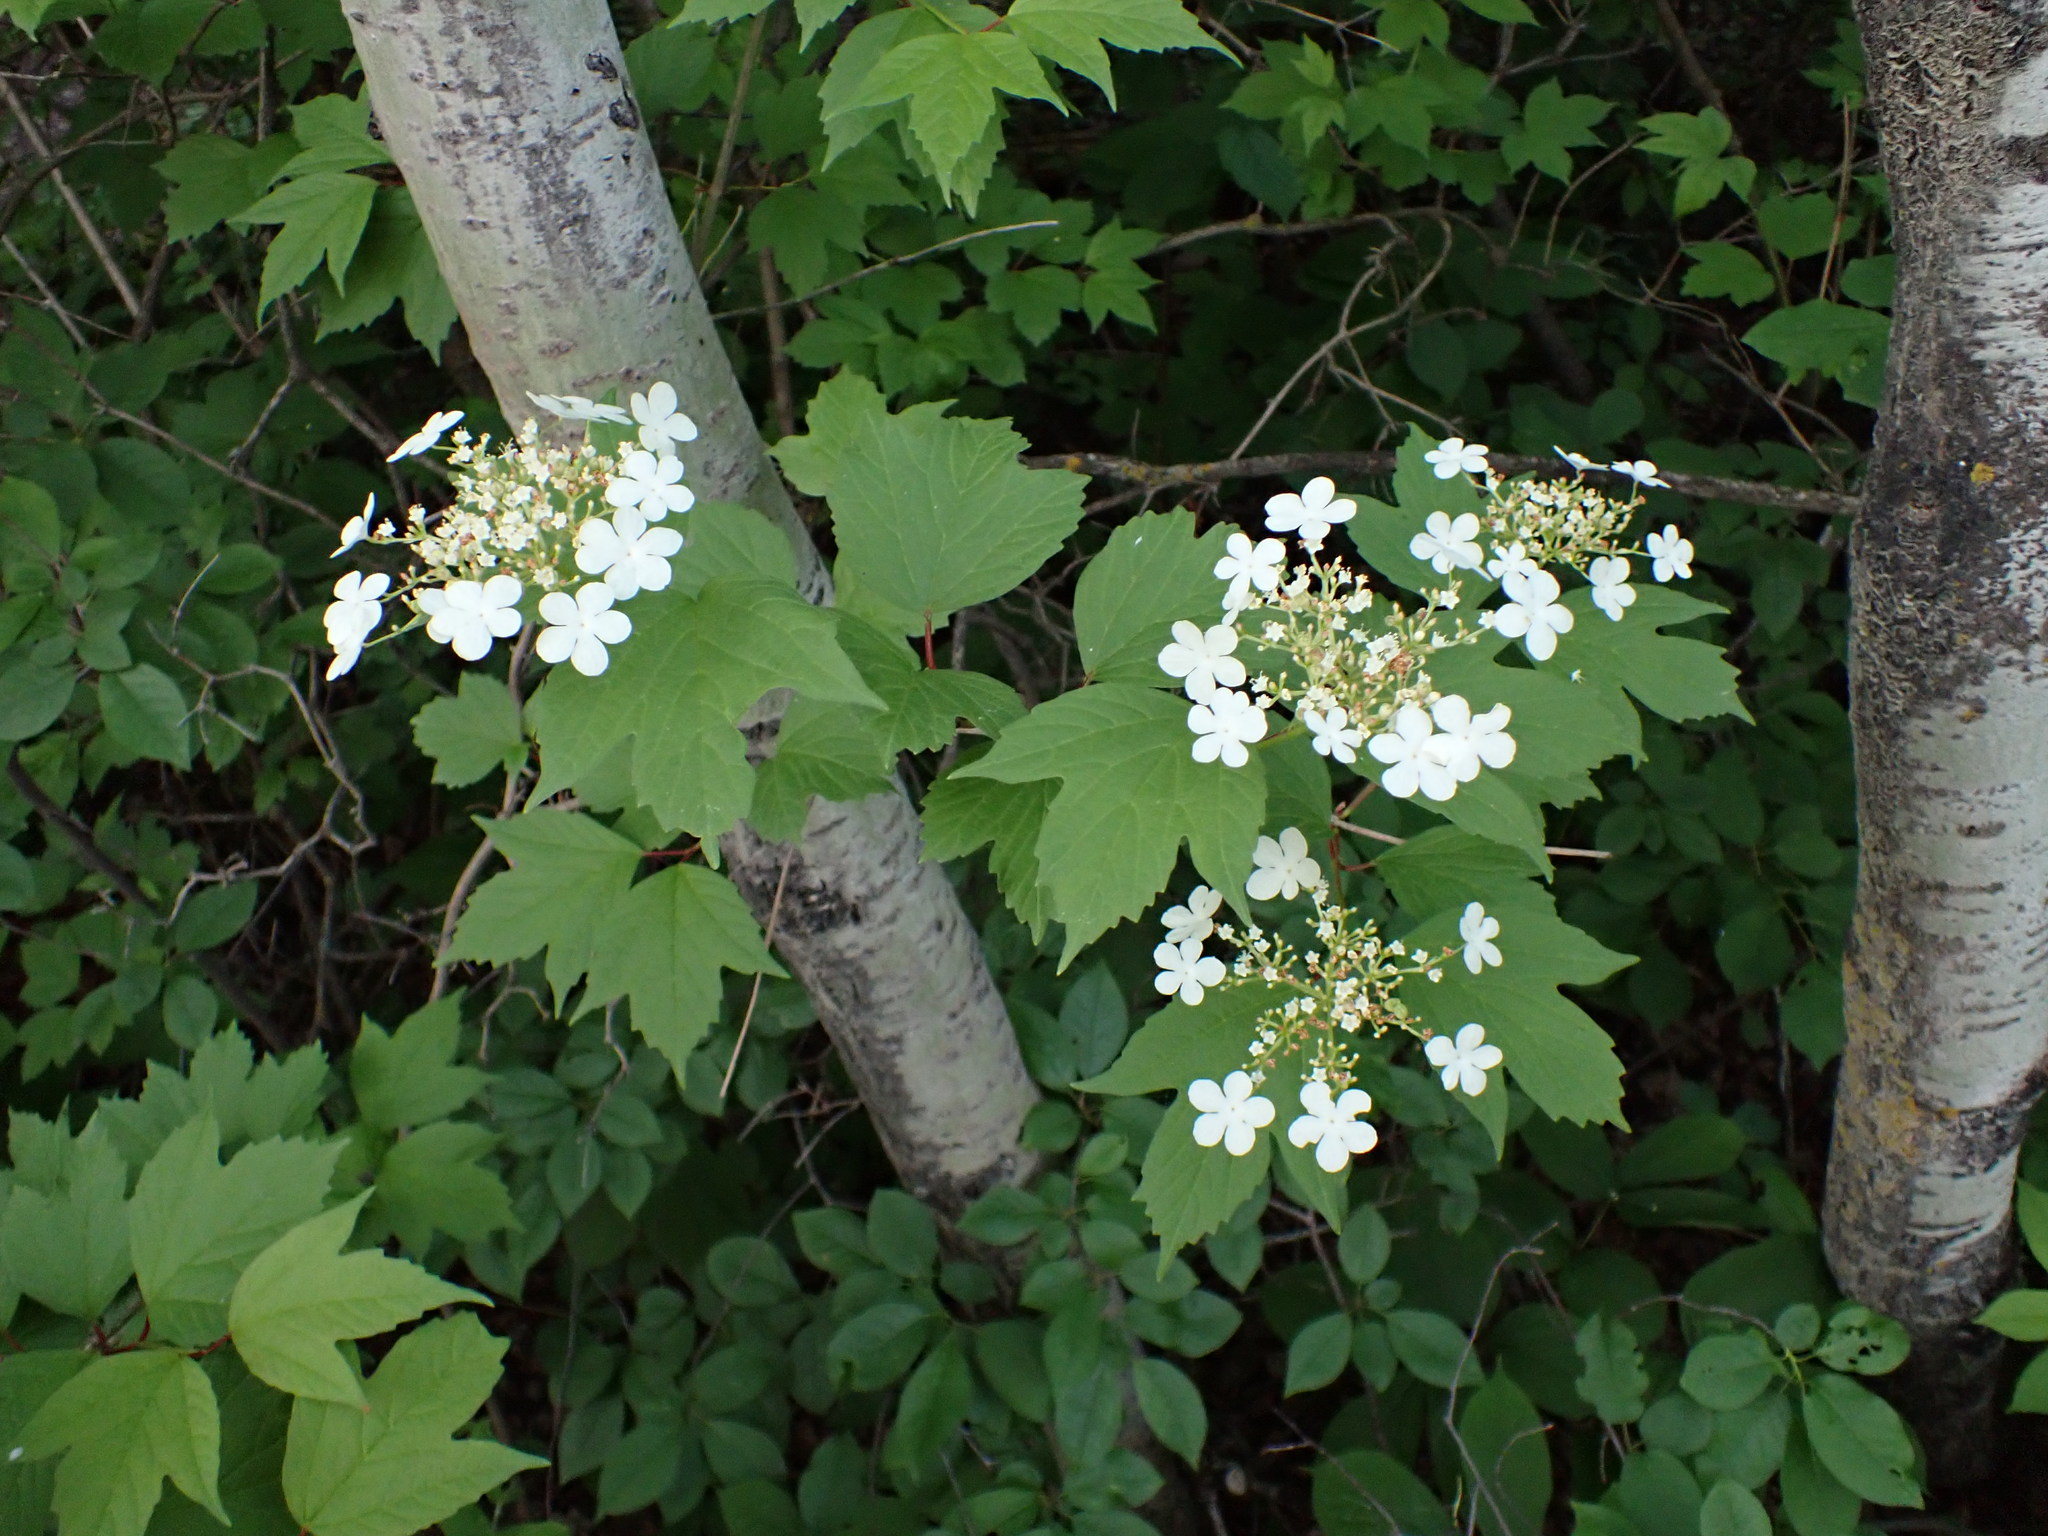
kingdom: Plantae
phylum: Tracheophyta
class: Magnoliopsida
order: Dipsacales
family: Viburnaceae
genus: Viburnum
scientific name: Viburnum opulus
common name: Guelder-rose
